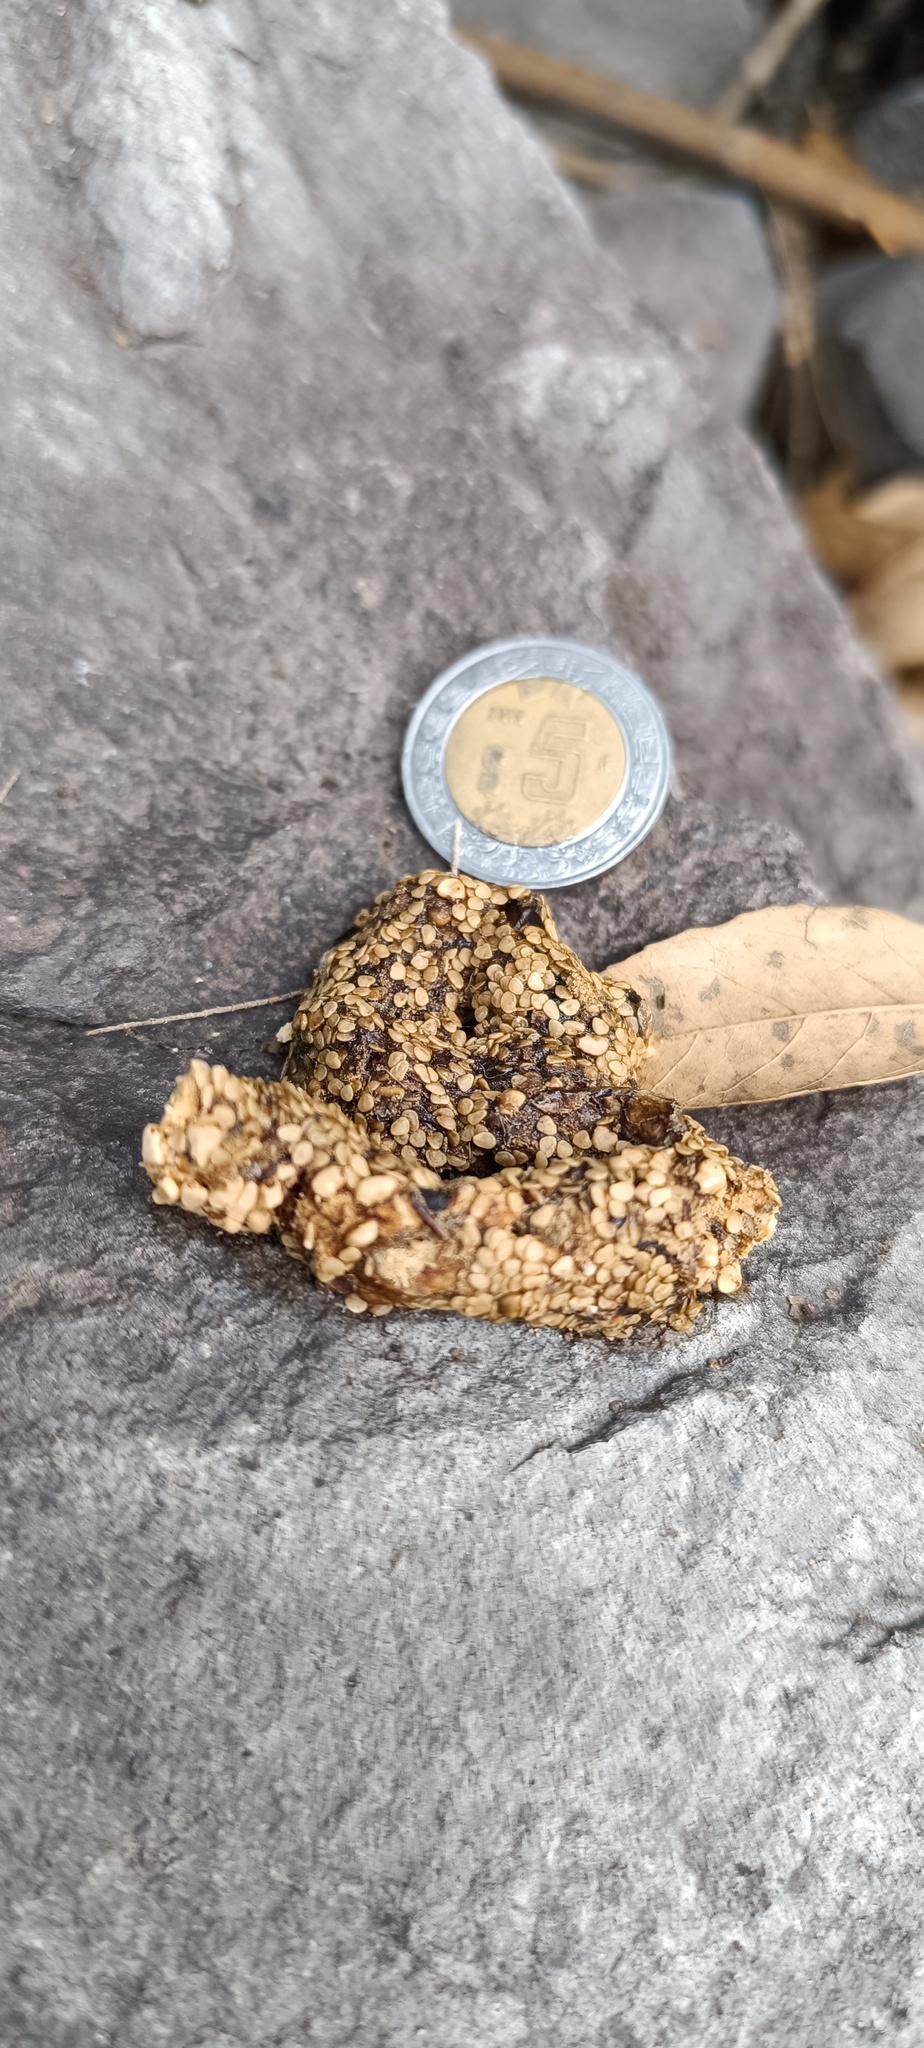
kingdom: Animalia
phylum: Chordata
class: Mammalia
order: Carnivora
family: Procyonidae
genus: Bassariscus
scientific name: Bassariscus astutus
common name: Ringtail
